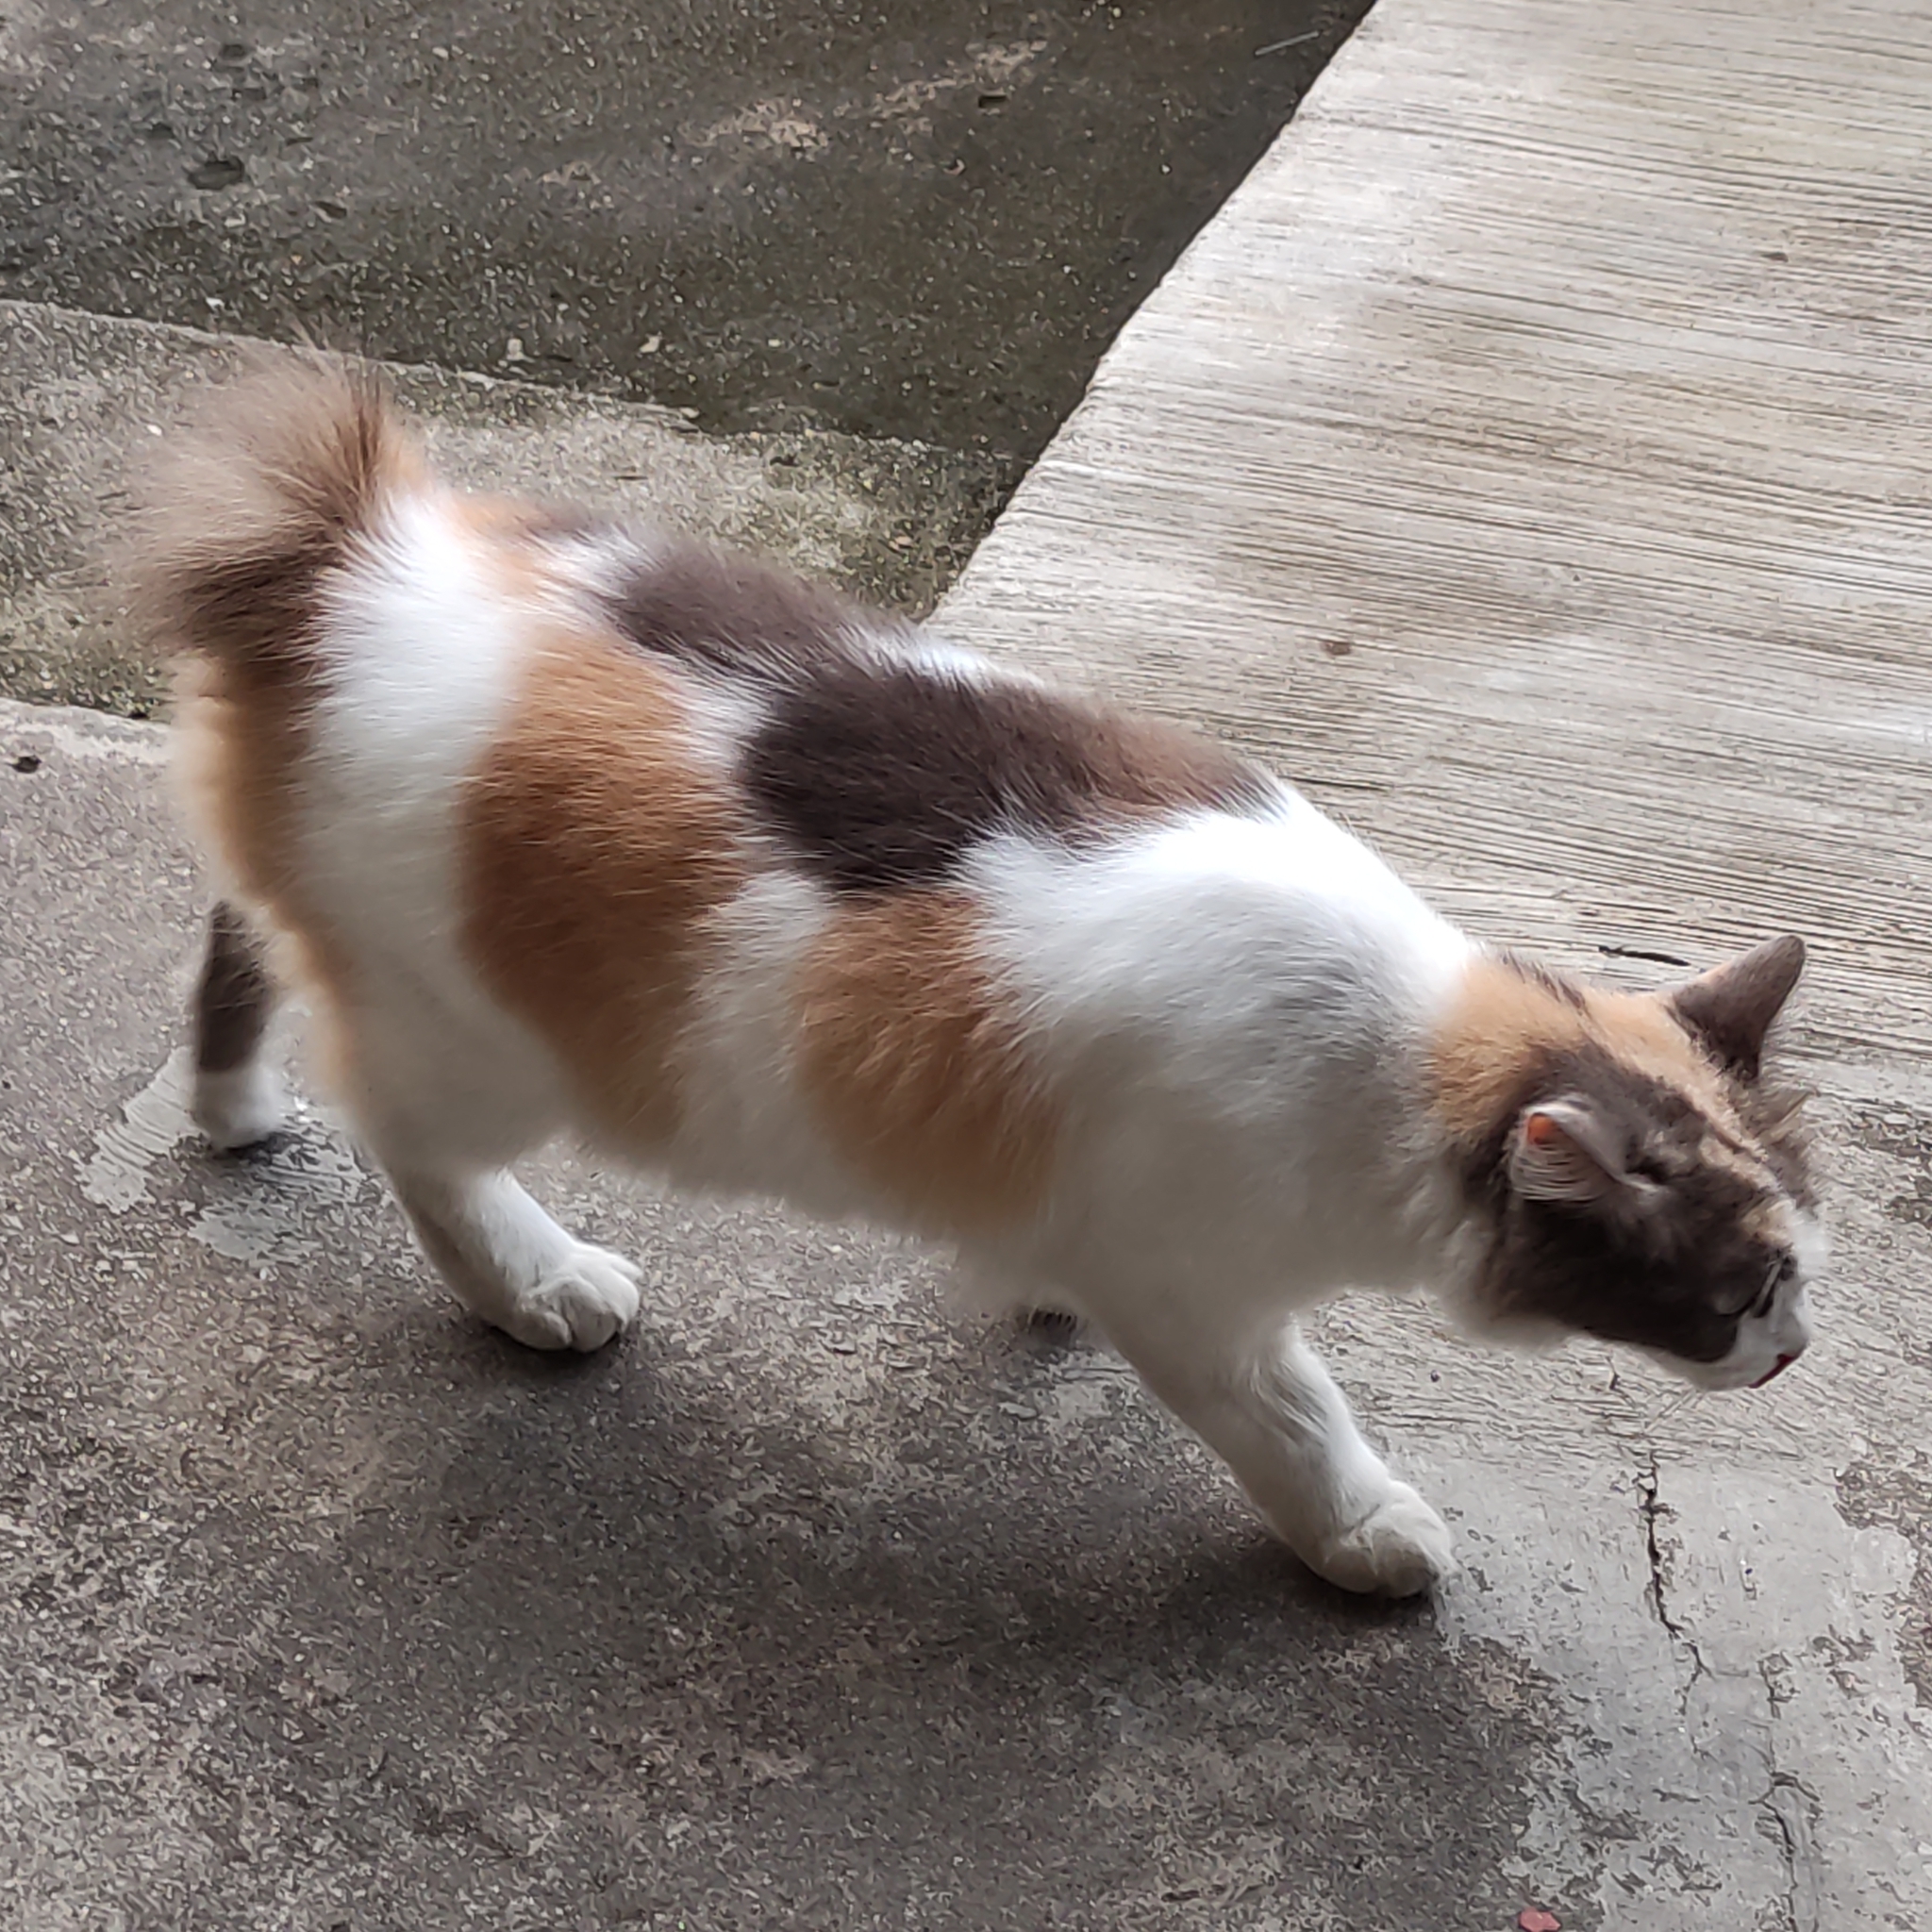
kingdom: Animalia
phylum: Chordata
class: Mammalia
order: Carnivora
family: Felidae
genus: Felis
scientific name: Felis catus
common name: Domestic cat
